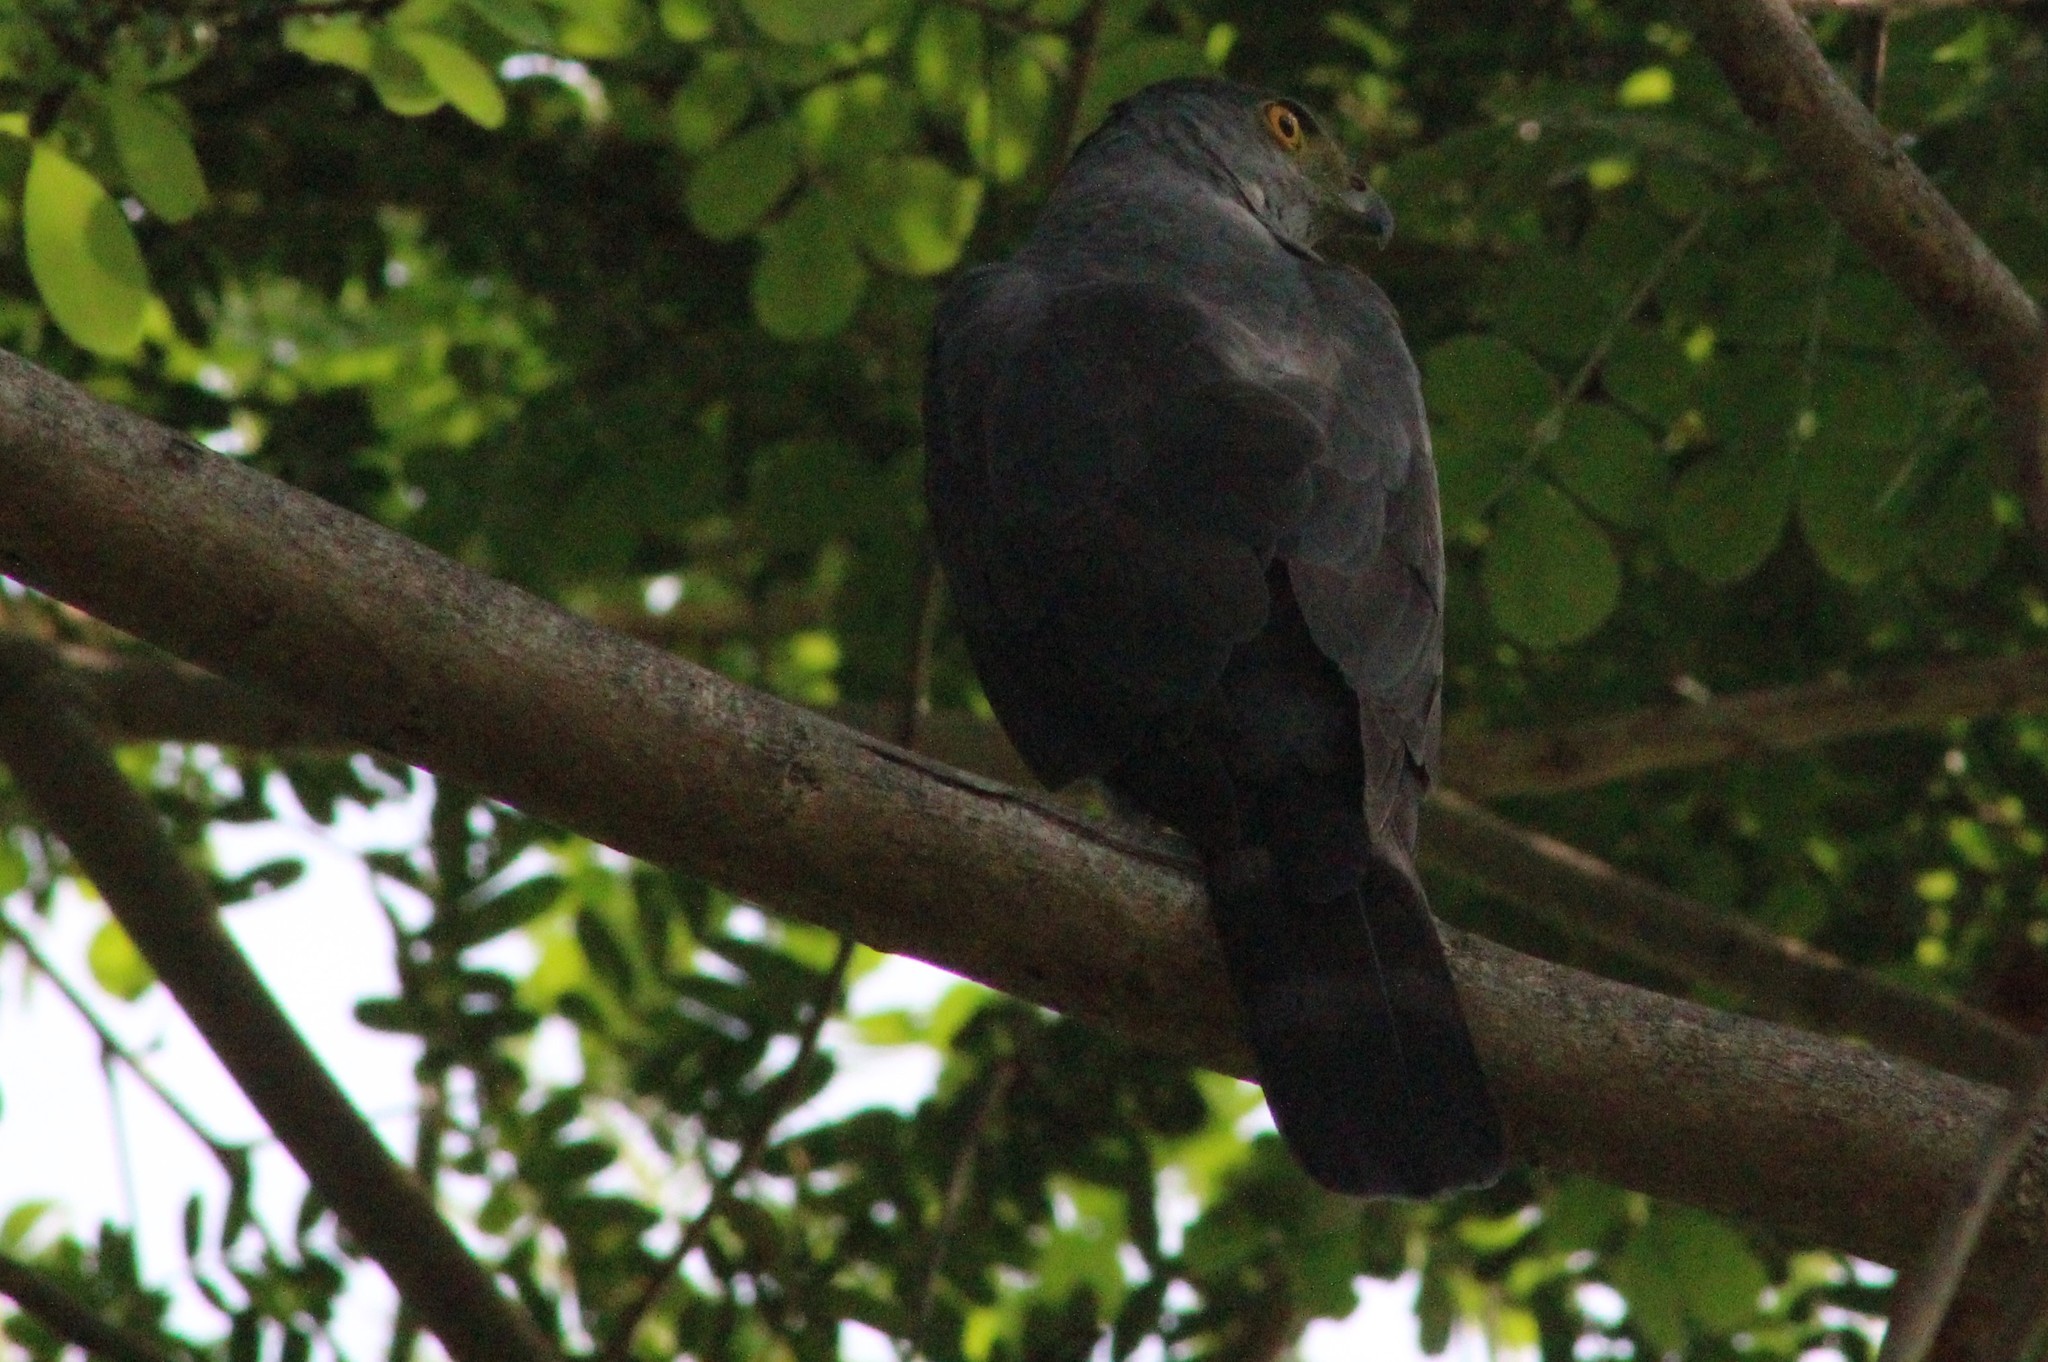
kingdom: Animalia
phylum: Chordata
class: Aves
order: Accipitriformes
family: Accipitridae
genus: Accipiter
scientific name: Accipiter bicolor
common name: Bicolored hawk
